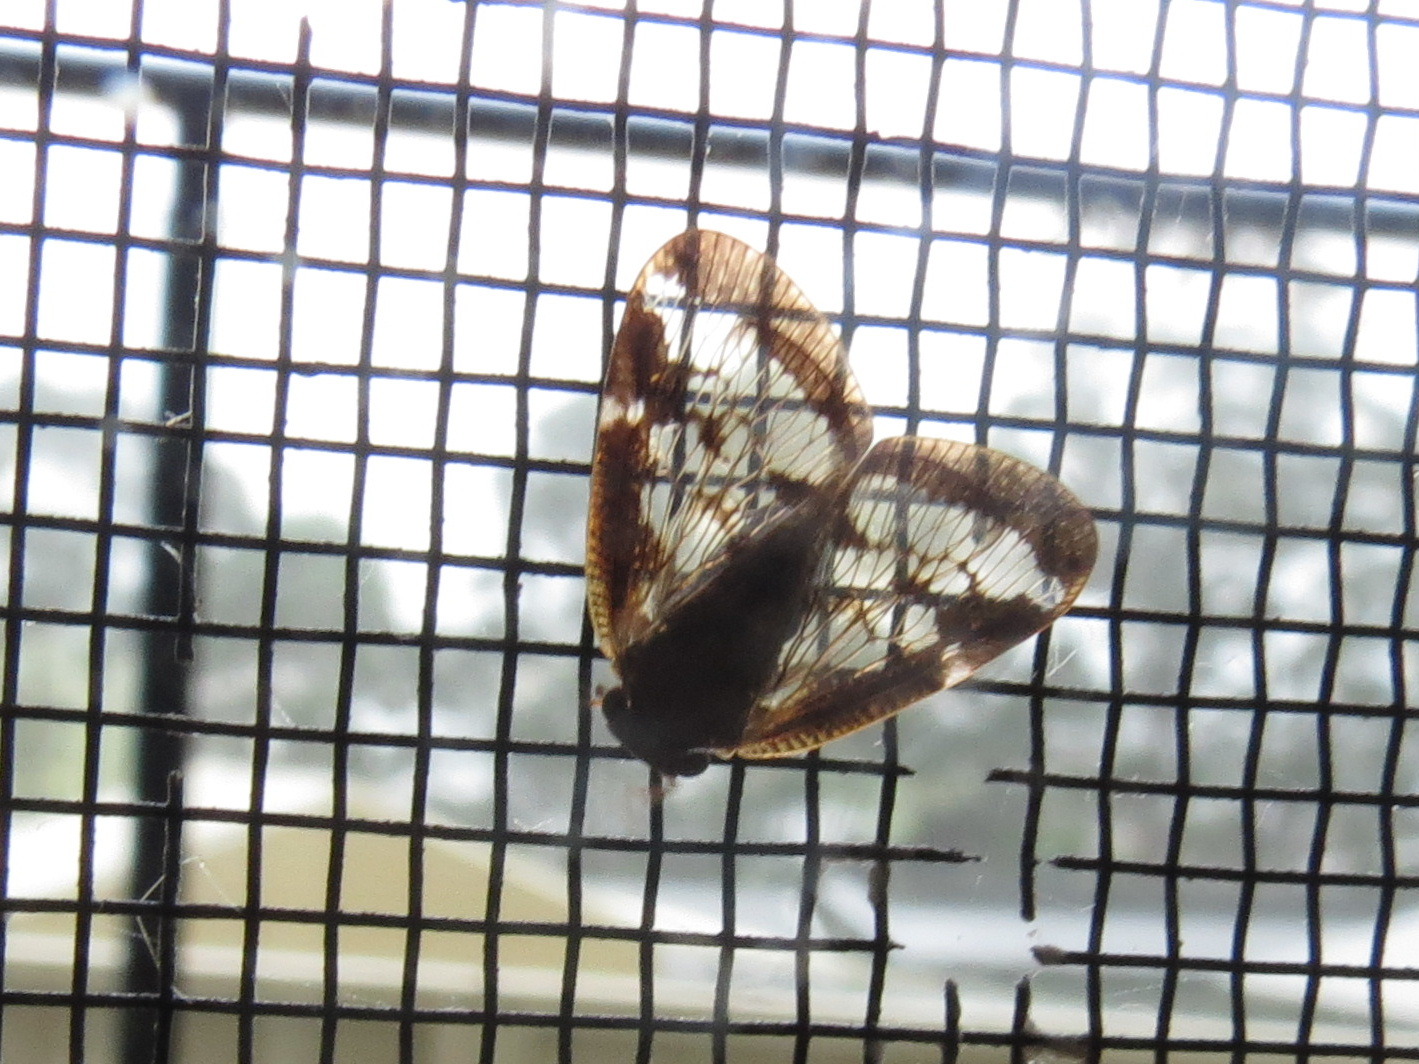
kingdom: Animalia
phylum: Arthropoda
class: Insecta
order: Hemiptera
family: Ricaniidae
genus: Scolypopa
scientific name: Scolypopa australis
